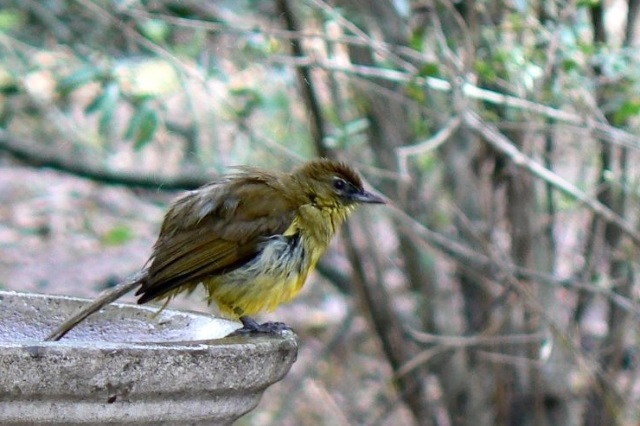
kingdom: Animalia
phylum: Chordata
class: Aves
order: Passeriformes
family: Pycnonotidae
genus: Chlorocichla
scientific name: Chlorocichla flaviventris
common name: Yellow-bellied greenbul
